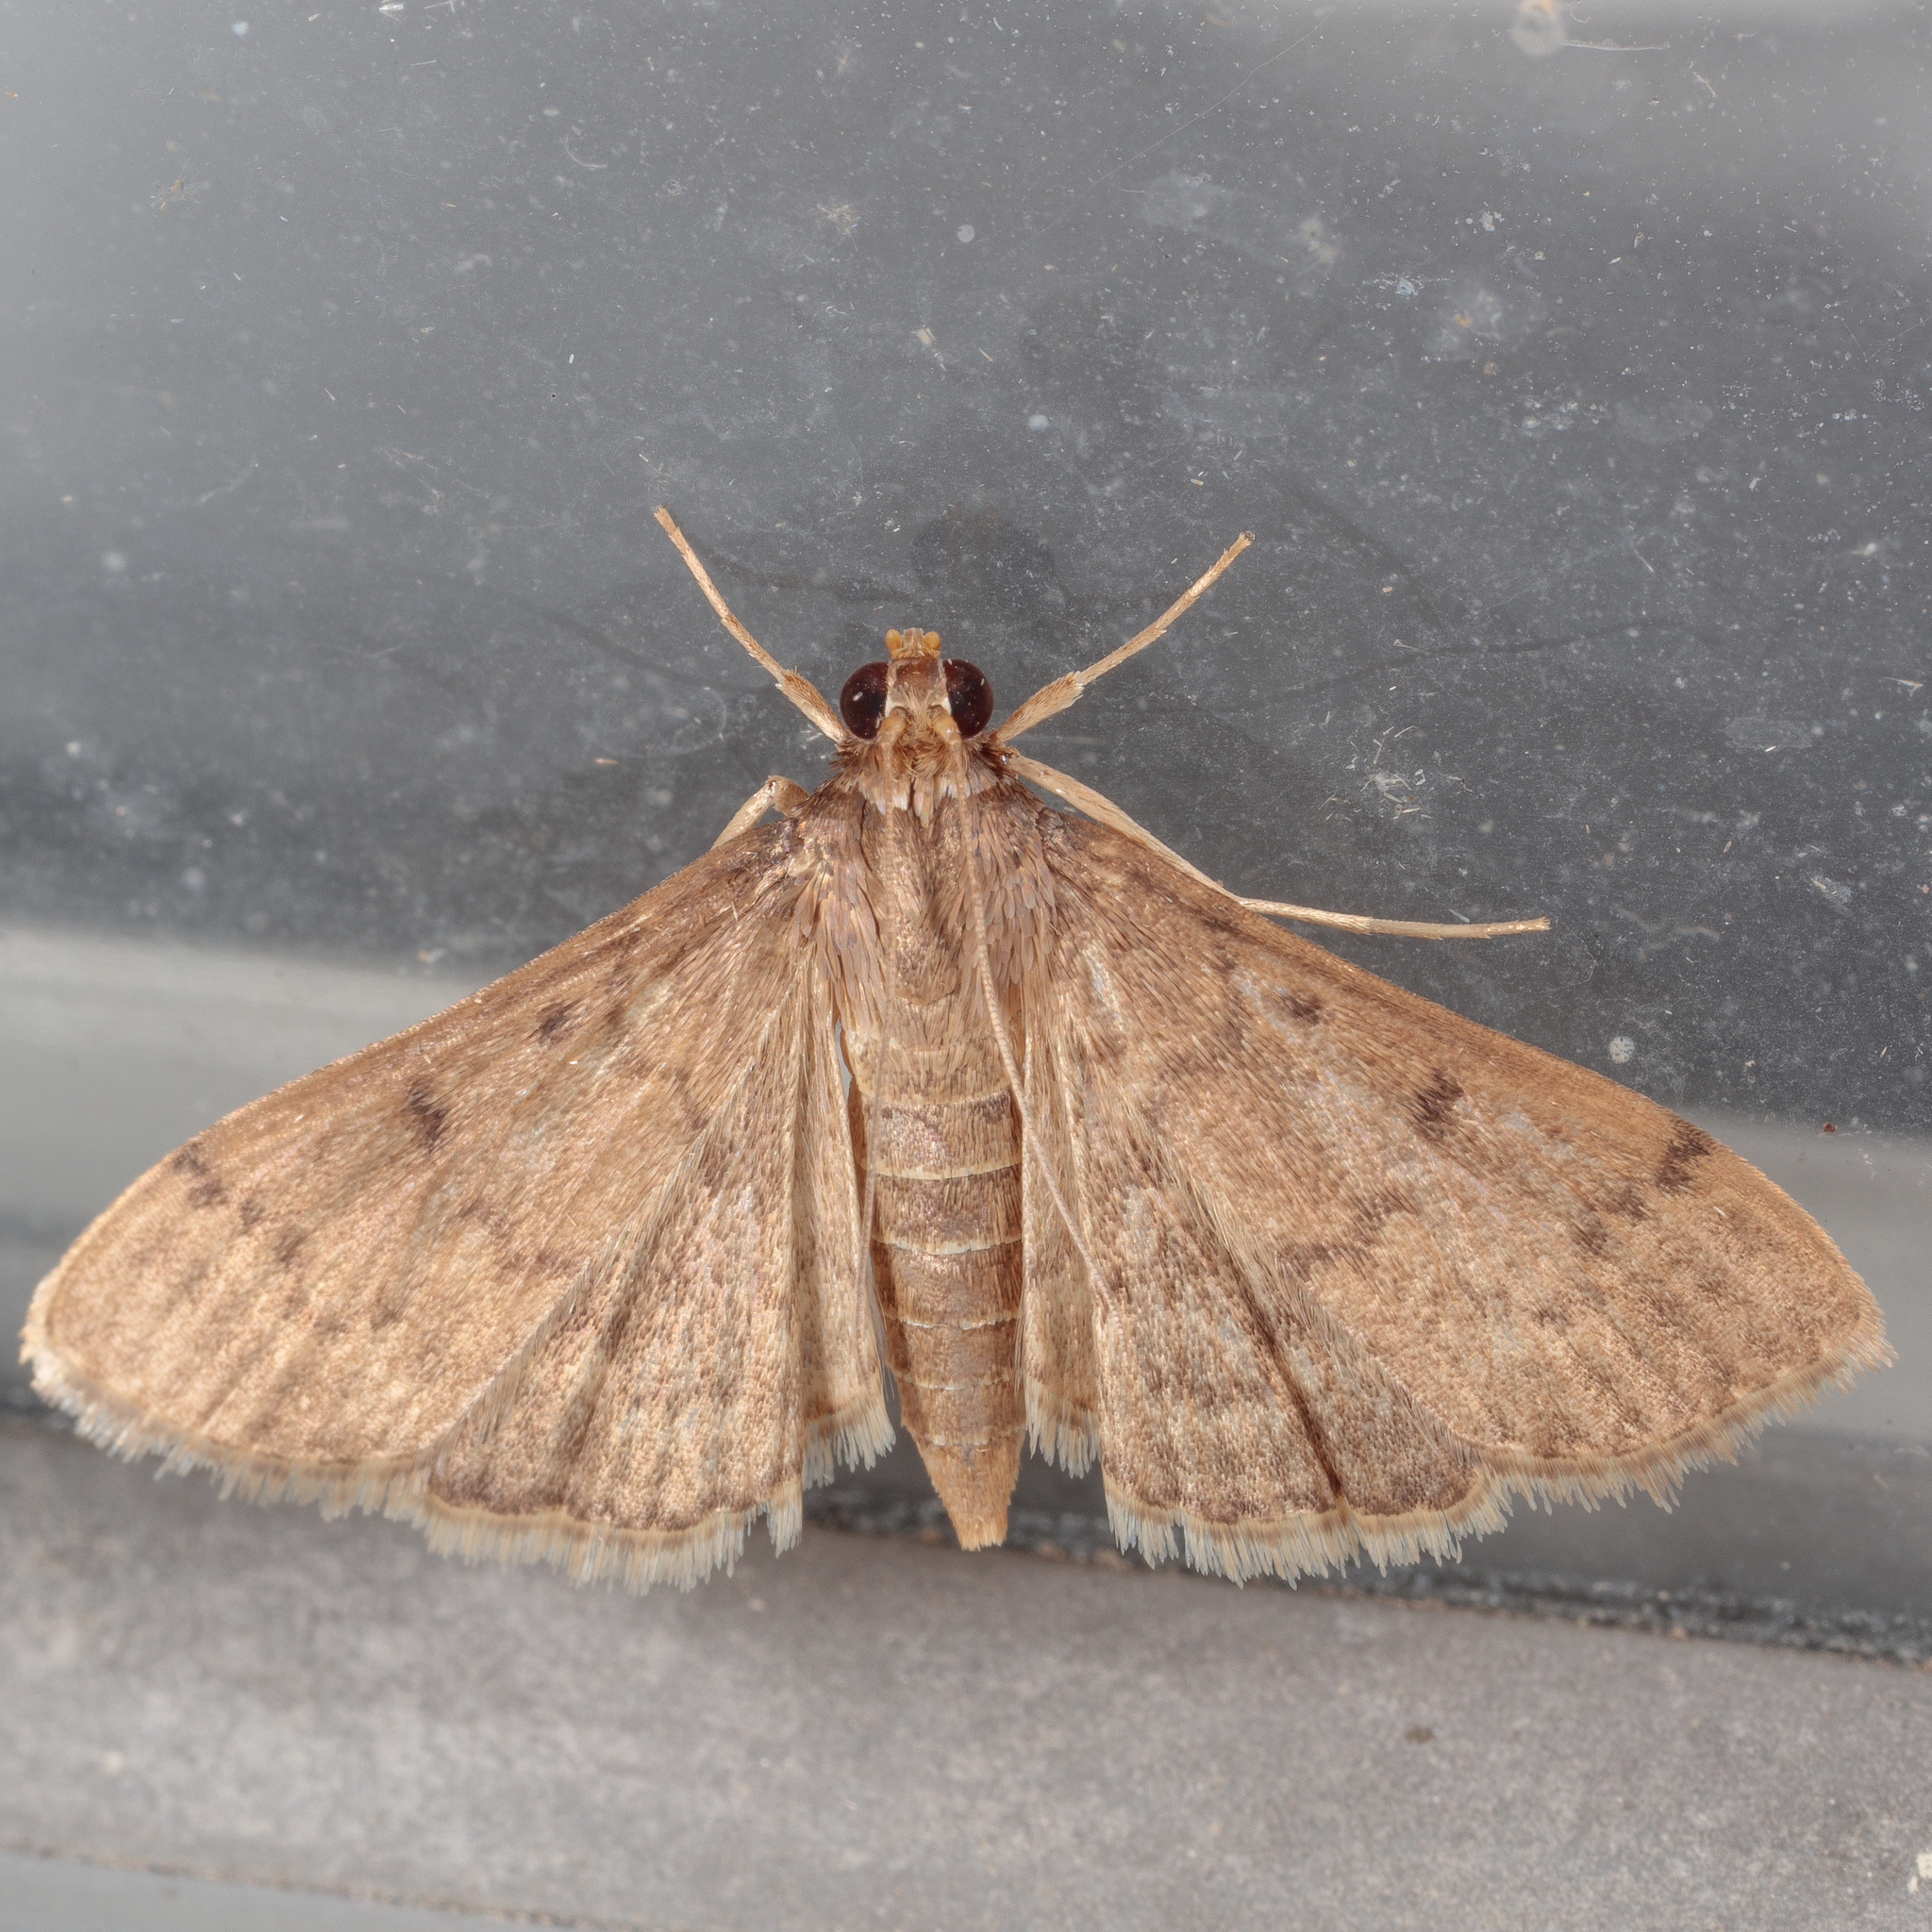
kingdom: Animalia
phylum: Arthropoda
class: Insecta
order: Lepidoptera
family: Crambidae
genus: Herpetogramma
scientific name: Herpetogramma phaeopteralis
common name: Dusky herpetogramma moth
